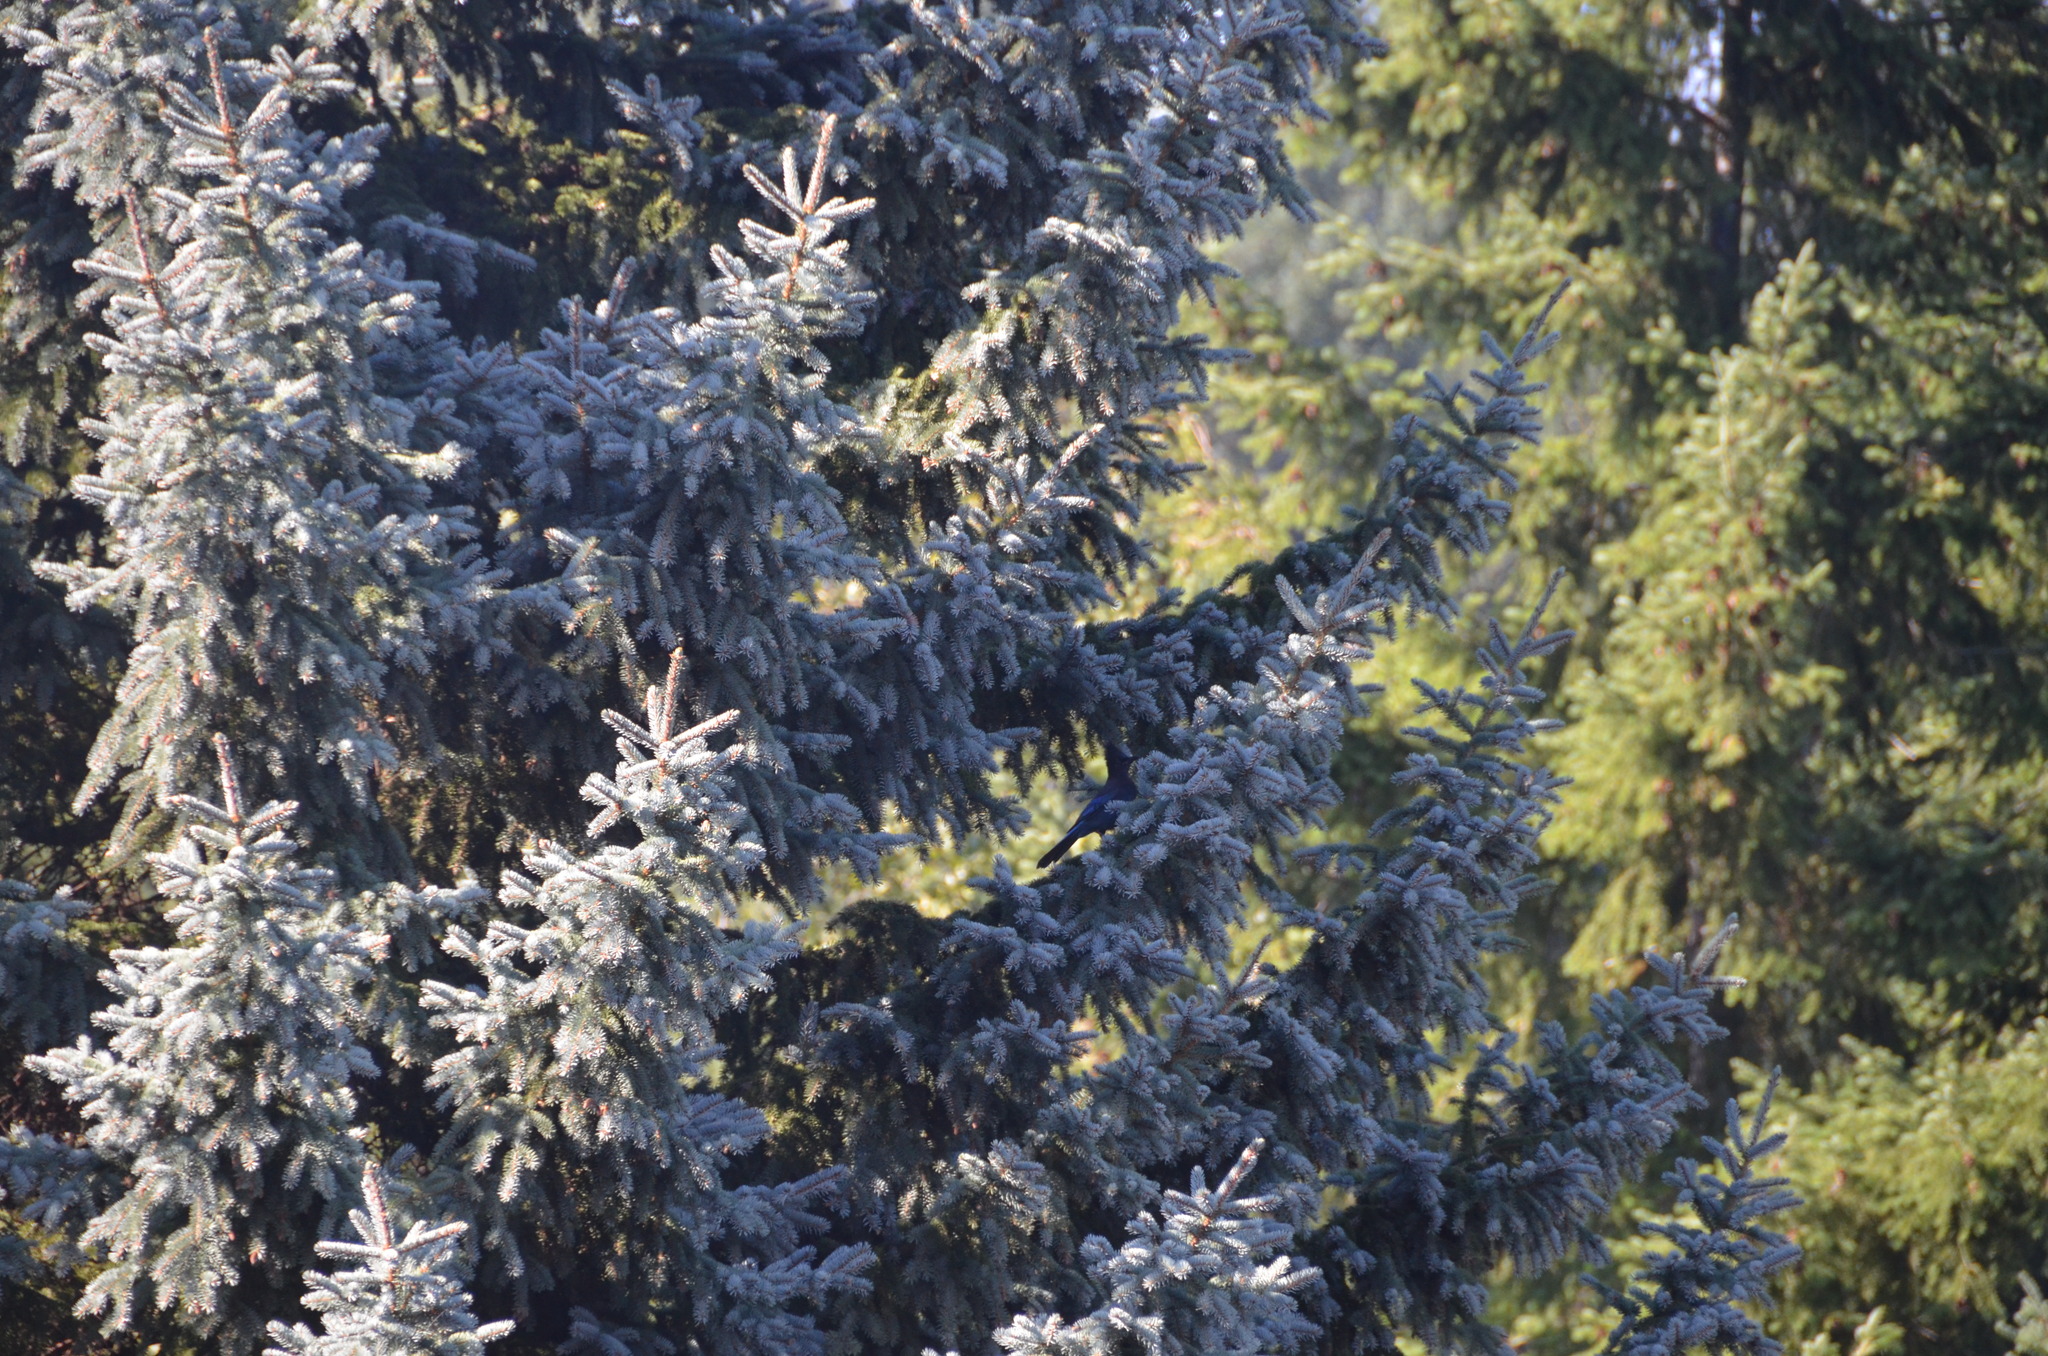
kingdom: Animalia
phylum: Chordata
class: Aves
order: Passeriformes
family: Corvidae
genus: Cyanocitta
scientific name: Cyanocitta stelleri
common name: Steller's jay
